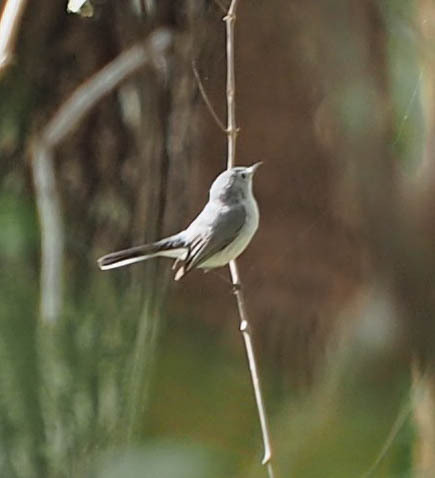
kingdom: Animalia
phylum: Chordata
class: Aves
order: Passeriformes
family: Polioptilidae
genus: Polioptila
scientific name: Polioptila caerulea
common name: Blue-gray gnatcatcher
